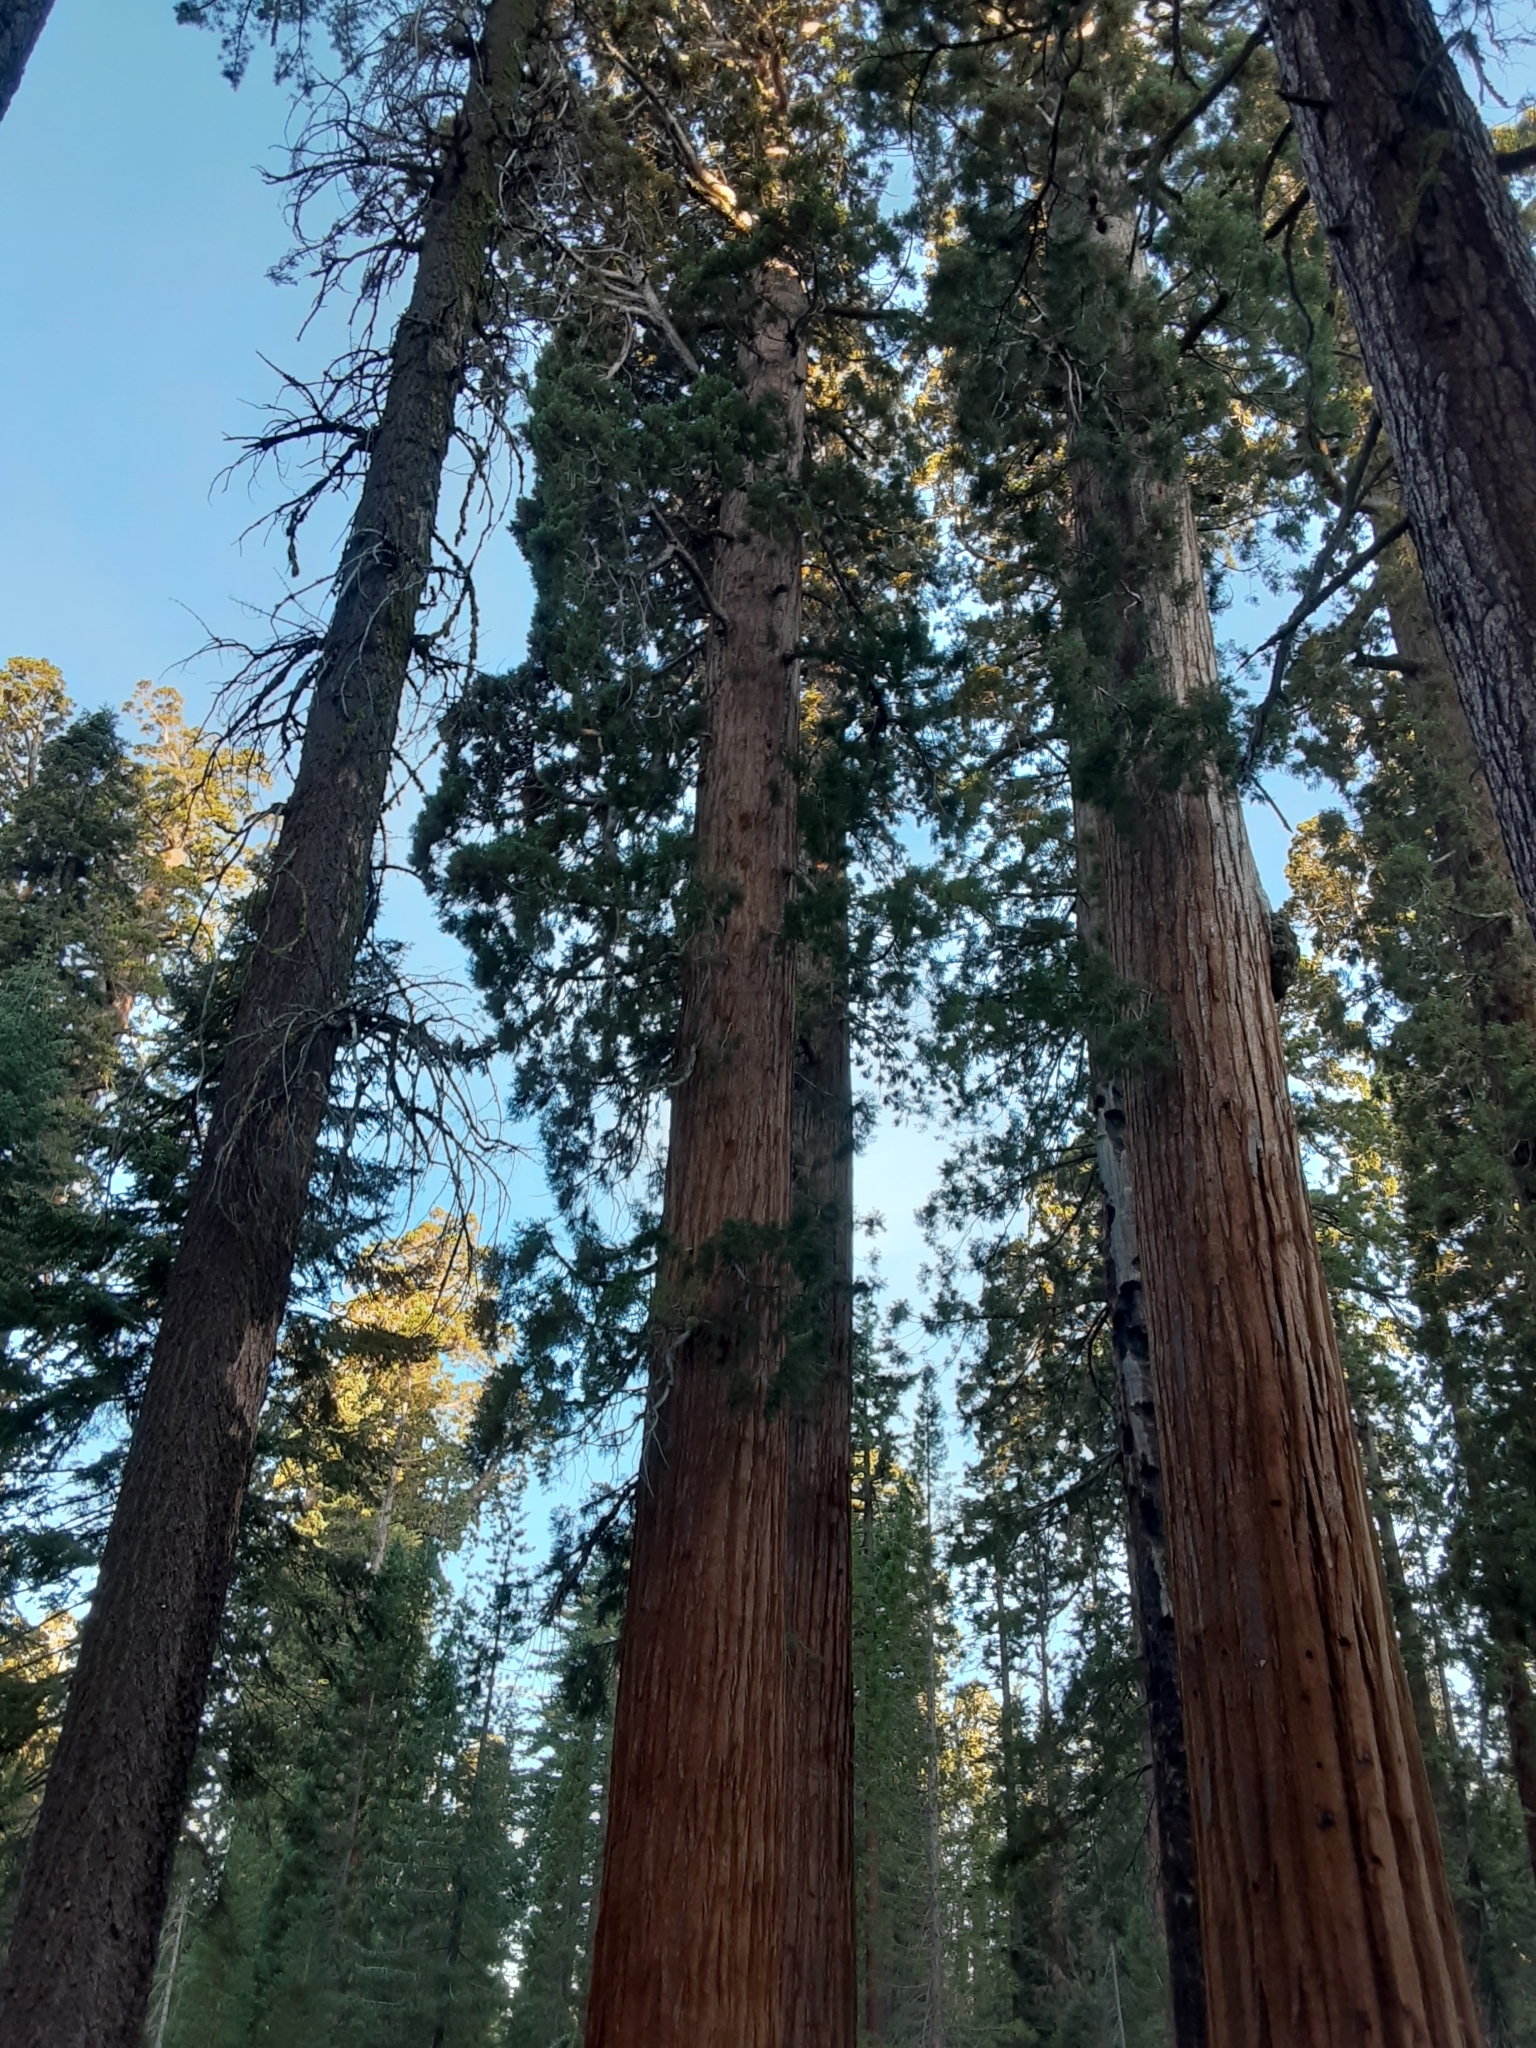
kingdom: Plantae
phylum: Tracheophyta
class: Pinopsida
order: Pinales
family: Cupressaceae
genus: Sequoiadendron
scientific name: Sequoiadendron giganteum
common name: Wellingtonia
